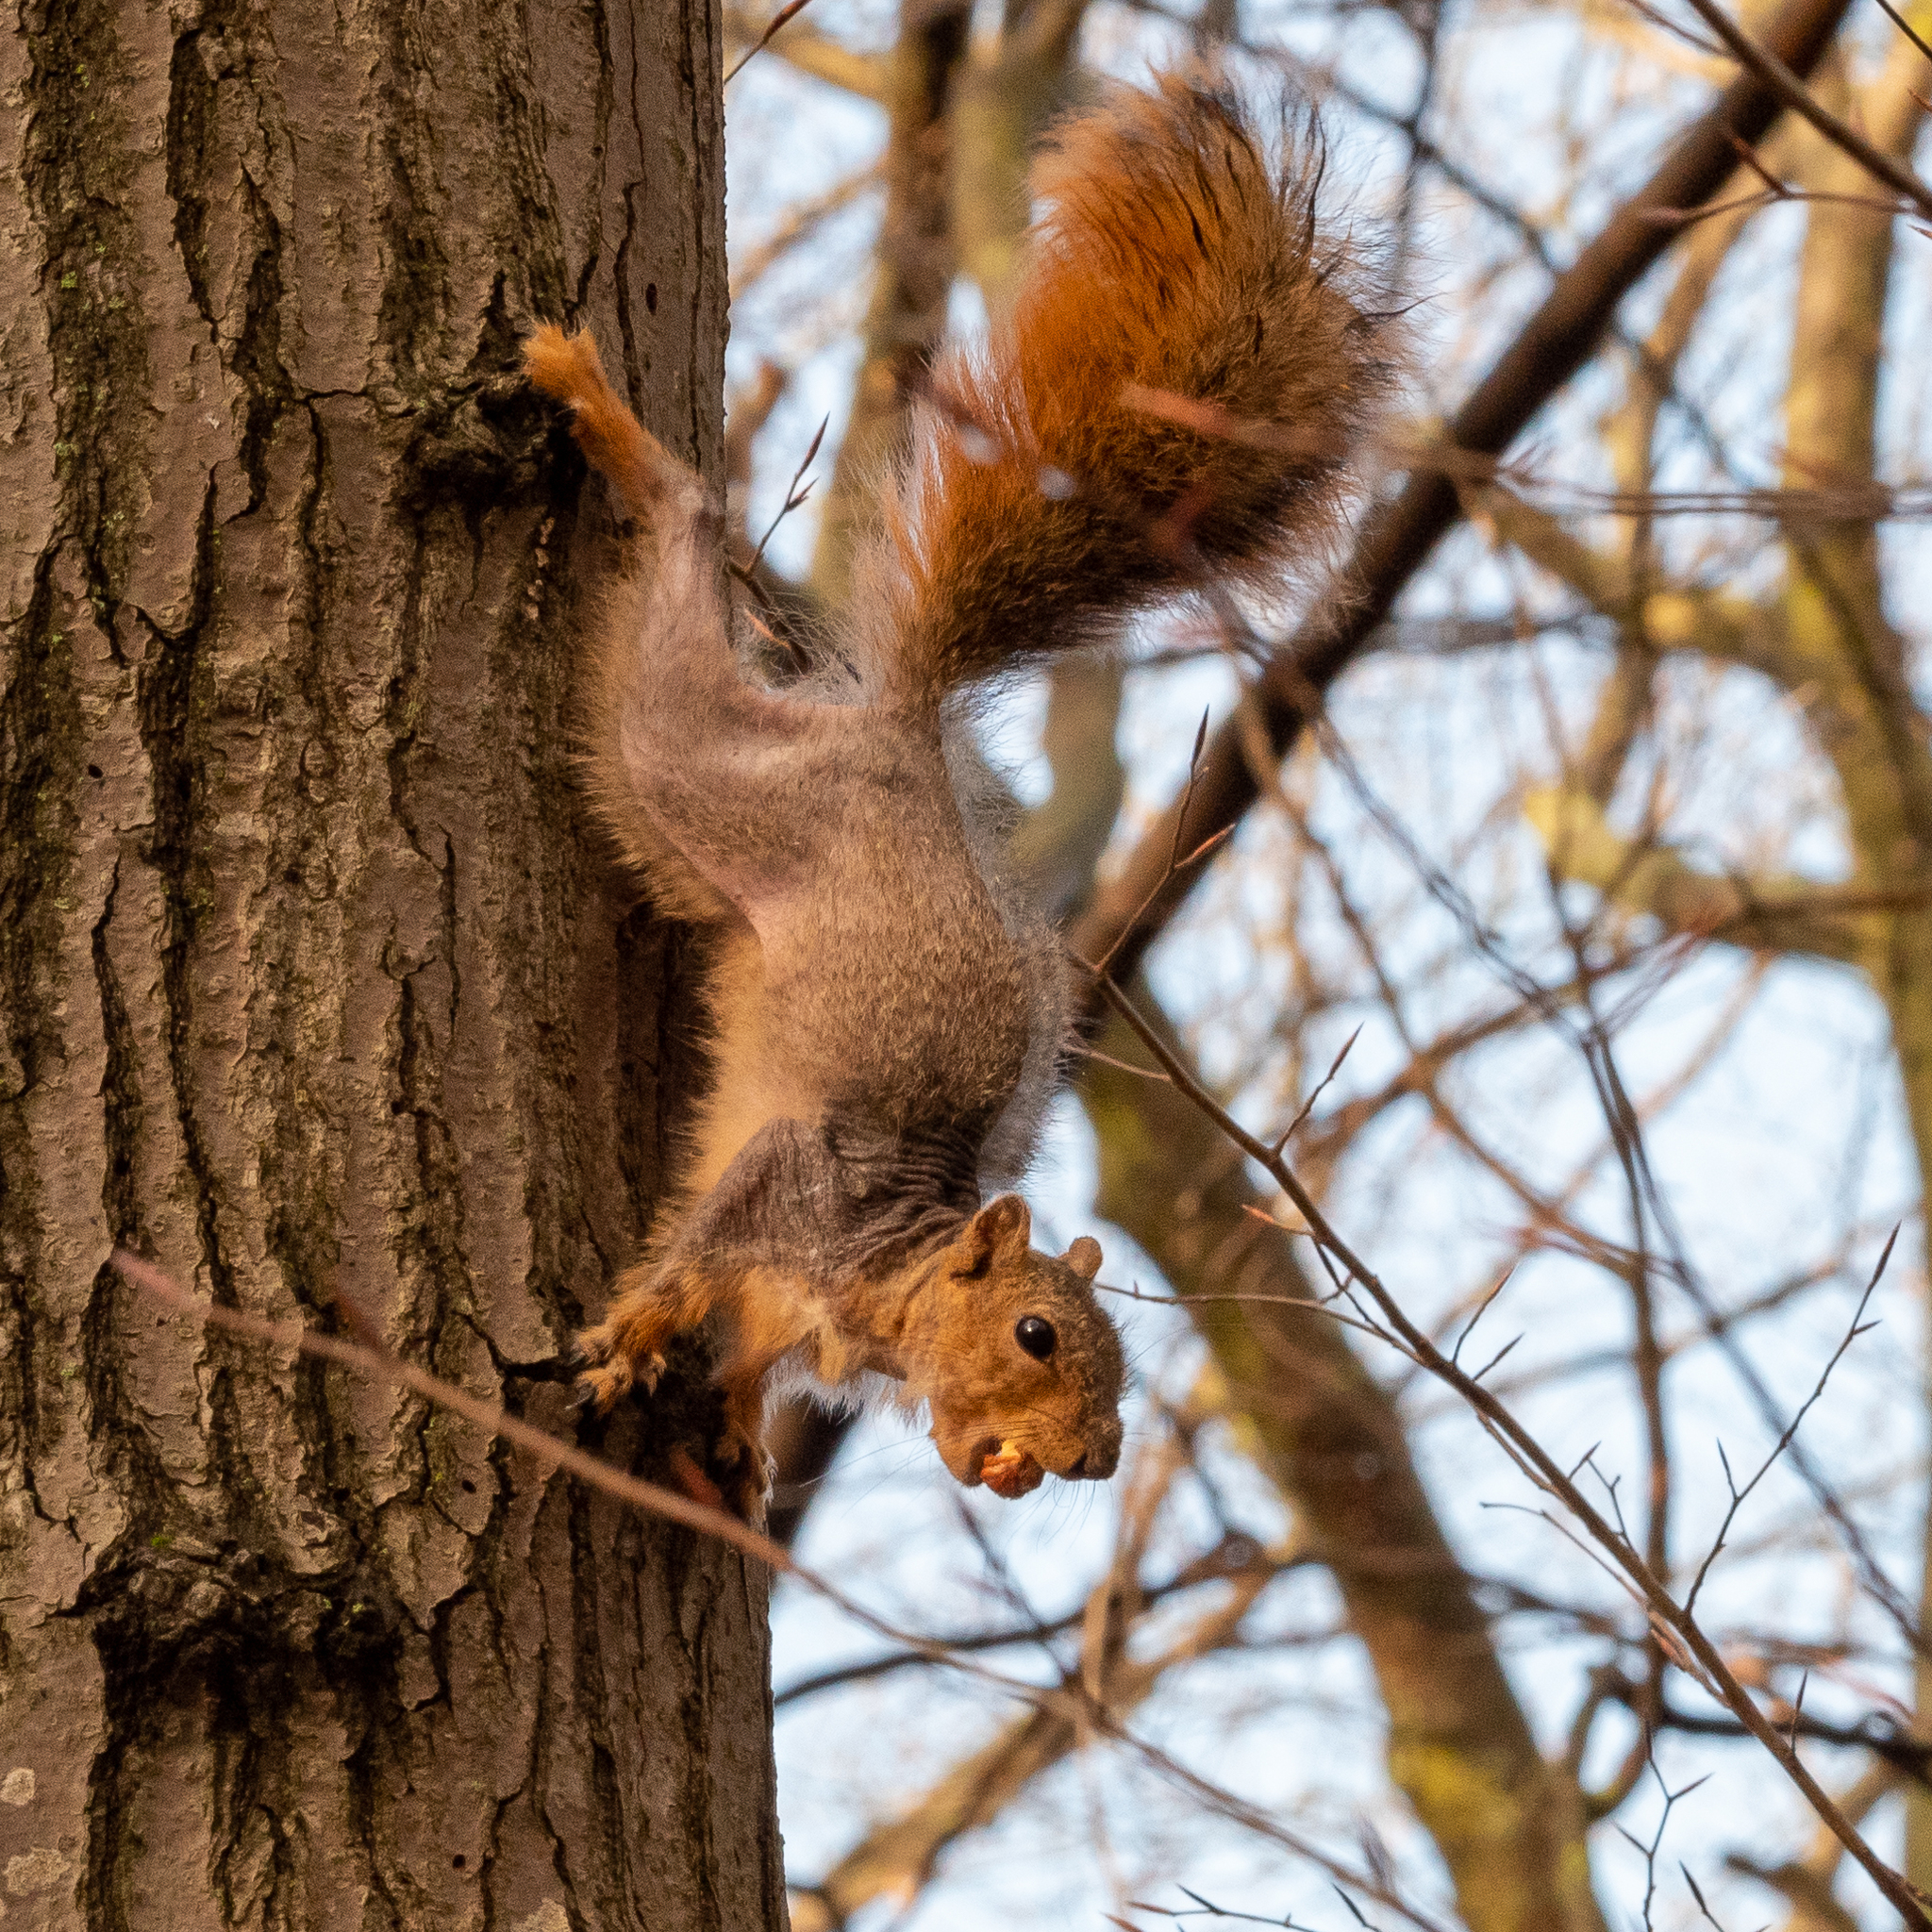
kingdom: Animalia
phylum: Chordata
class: Mammalia
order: Rodentia
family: Sciuridae
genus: Sciurus
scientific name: Sciurus niger
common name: Fox squirrel
